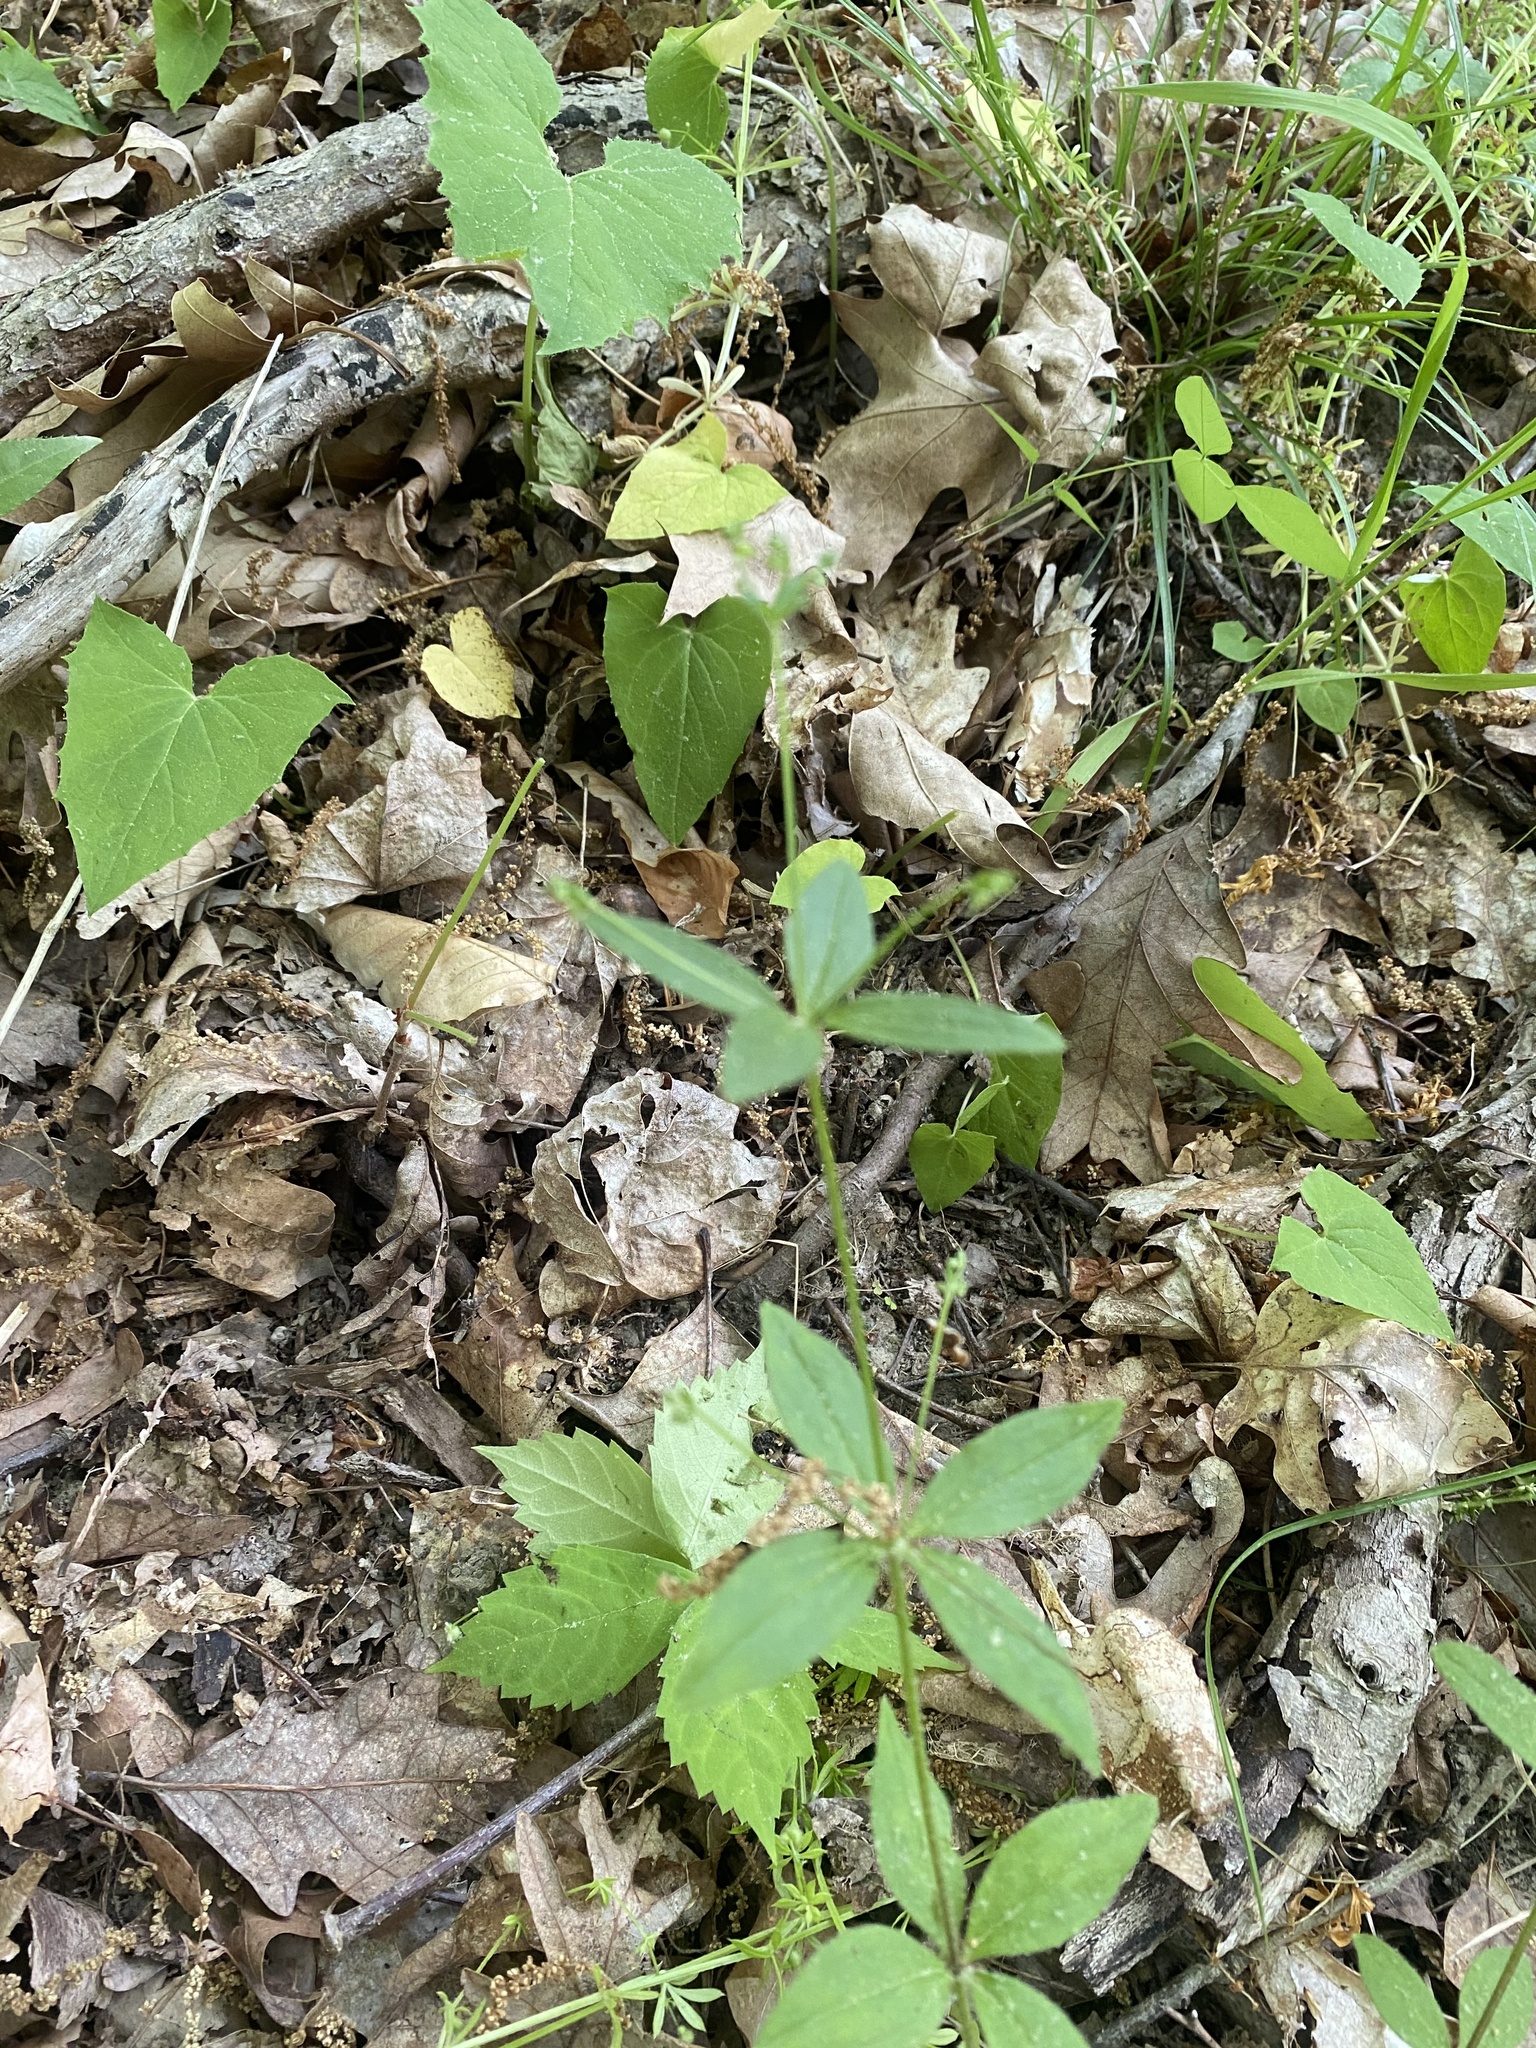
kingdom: Plantae
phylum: Tracheophyta
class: Magnoliopsida
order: Gentianales
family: Rubiaceae
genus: Galium
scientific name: Galium circaezans
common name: Forest bedstraw
